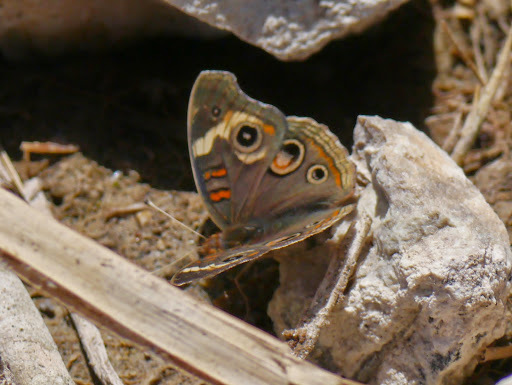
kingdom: Animalia
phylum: Arthropoda
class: Insecta
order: Lepidoptera
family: Nymphalidae
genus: Junonia
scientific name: Junonia grisea
